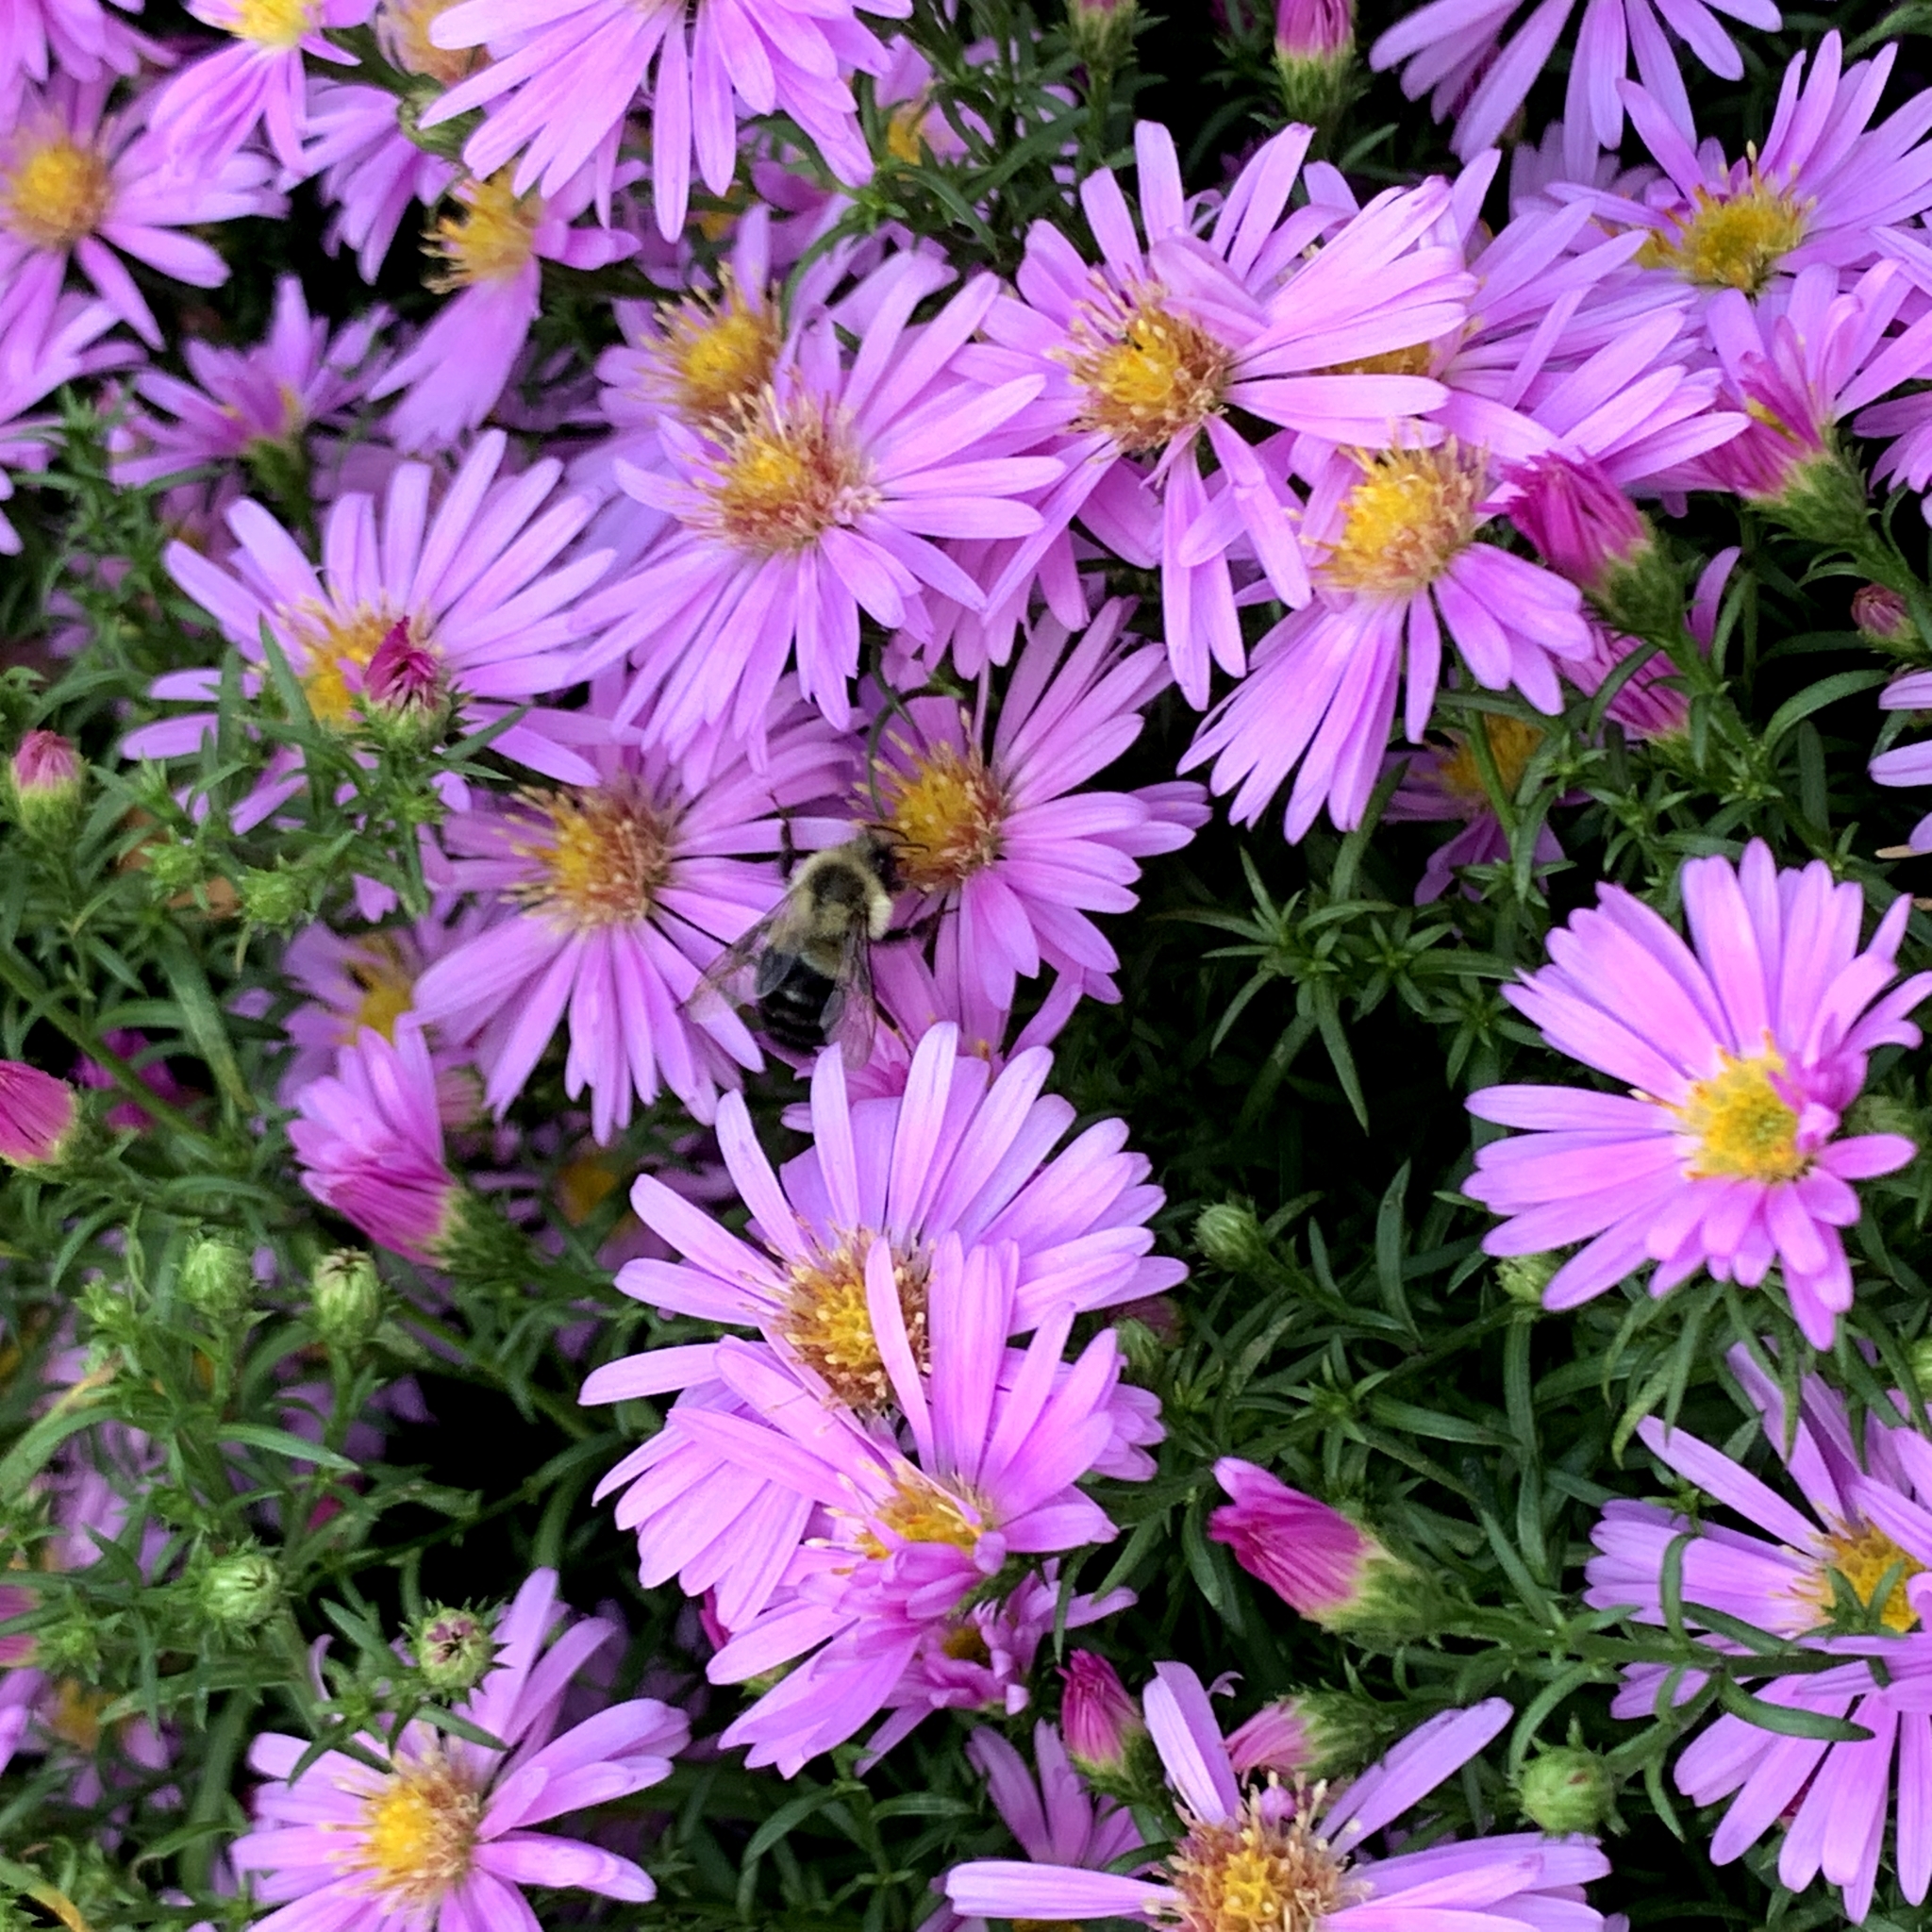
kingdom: Animalia
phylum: Arthropoda
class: Insecta
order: Hymenoptera
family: Apidae
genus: Bombus
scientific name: Bombus impatiens
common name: Common eastern bumble bee
